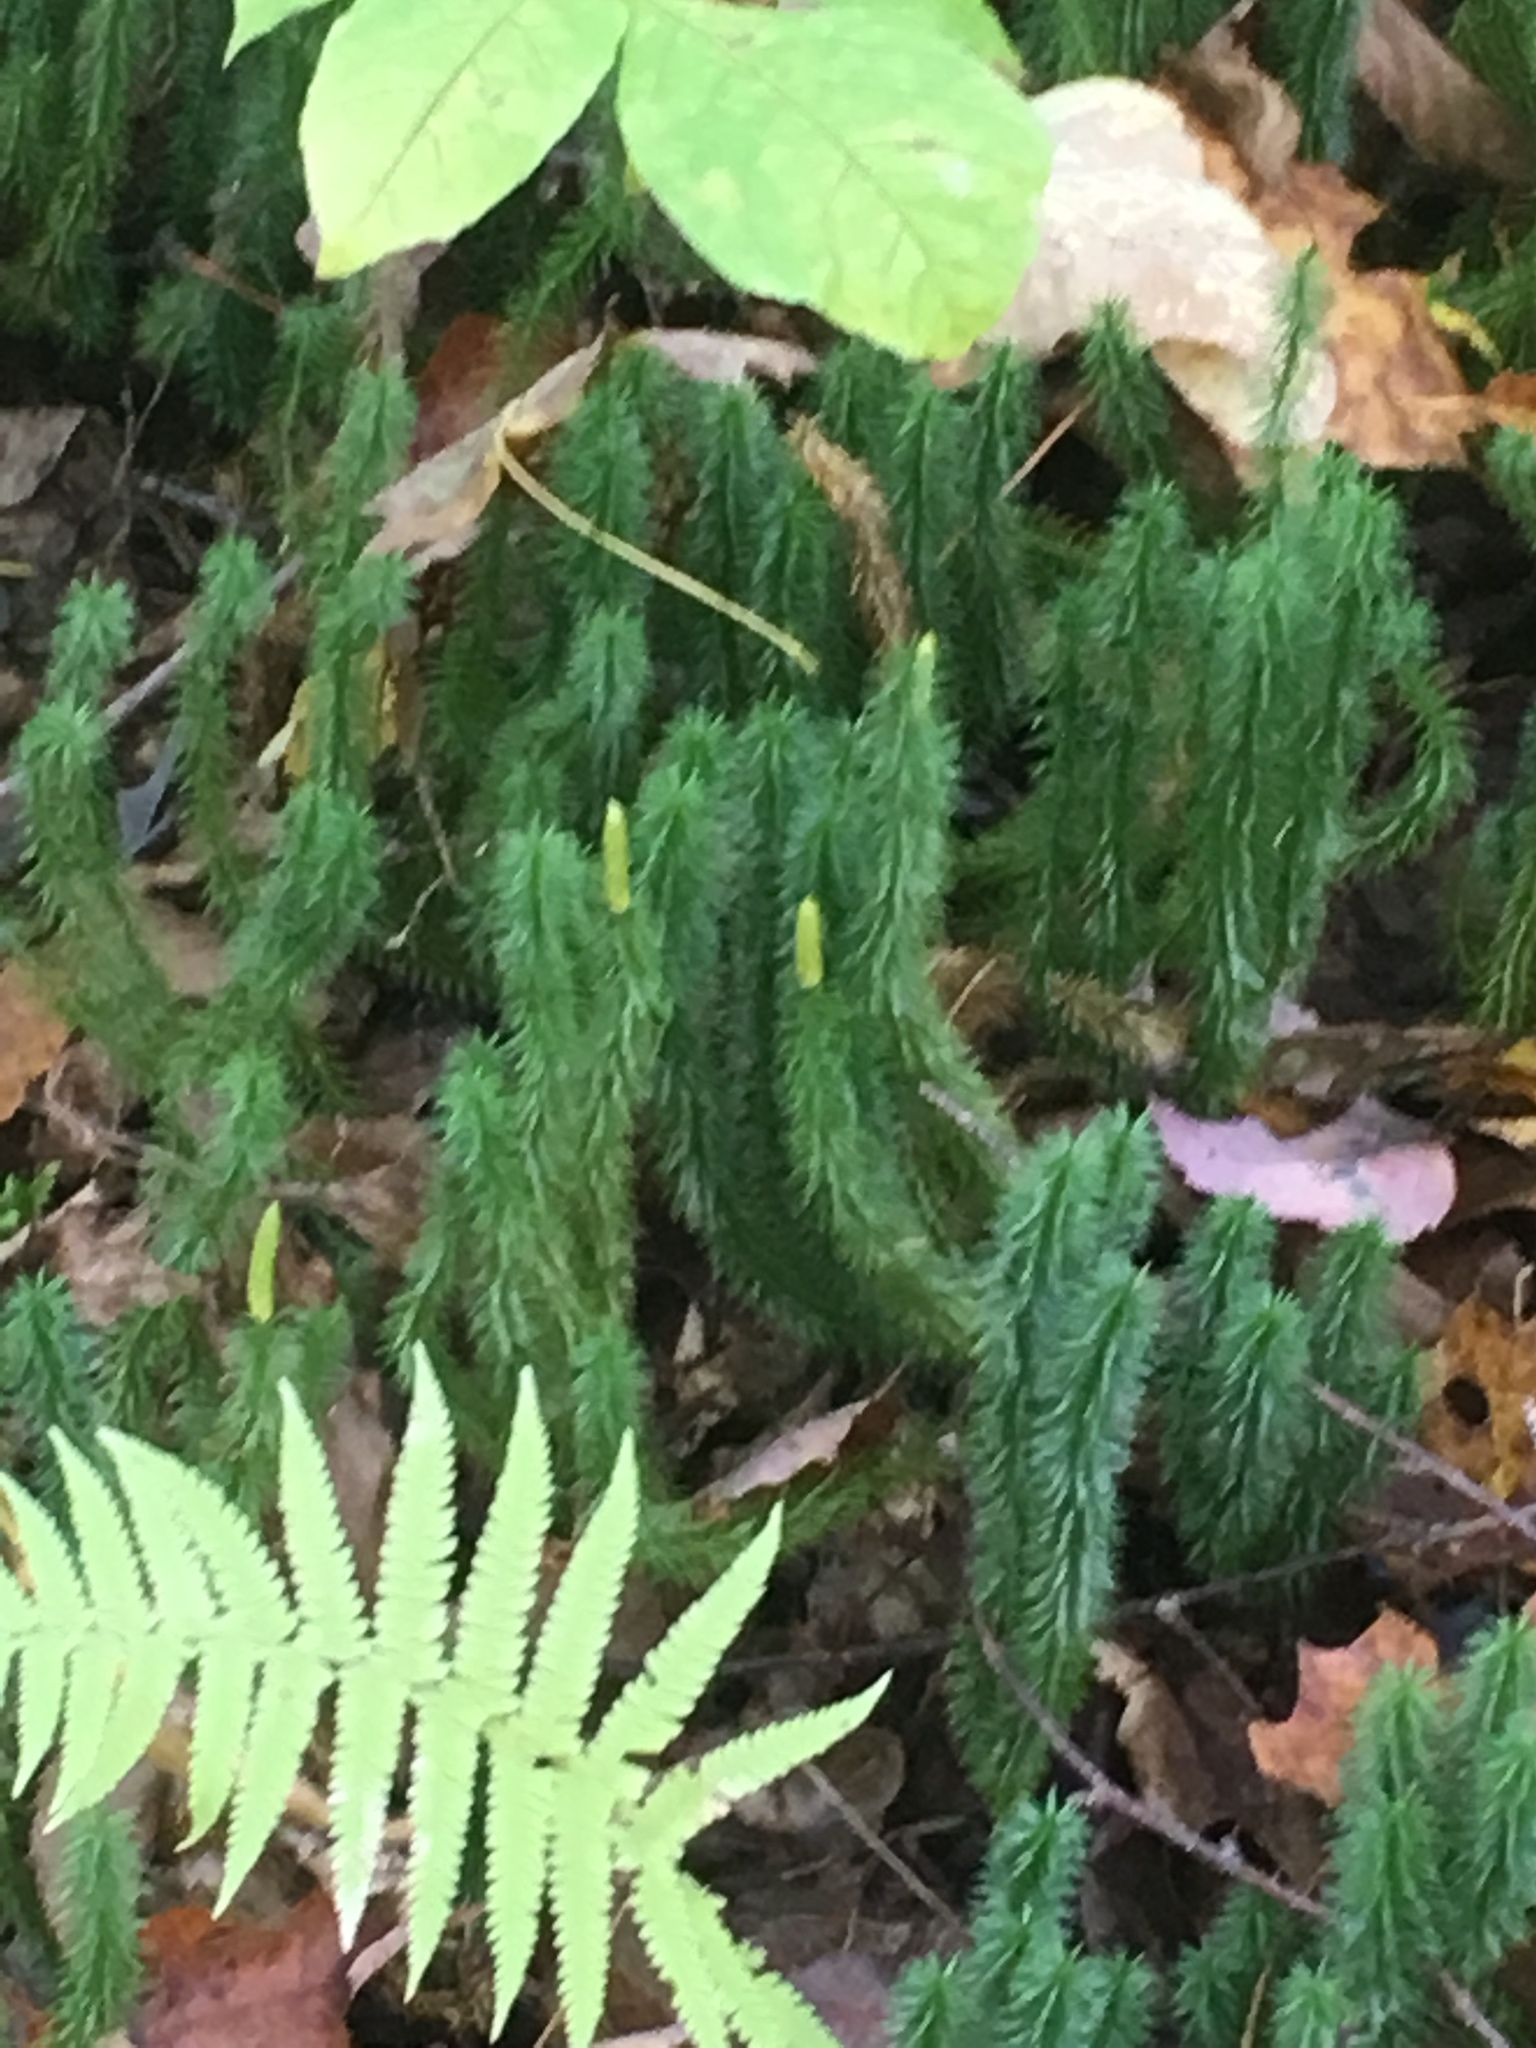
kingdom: Plantae
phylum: Tracheophyta
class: Lycopodiopsida
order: Lycopodiales
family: Lycopodiaceae
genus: Spinulum
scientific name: Spinulum annotinum
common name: Interrupted club-moss
